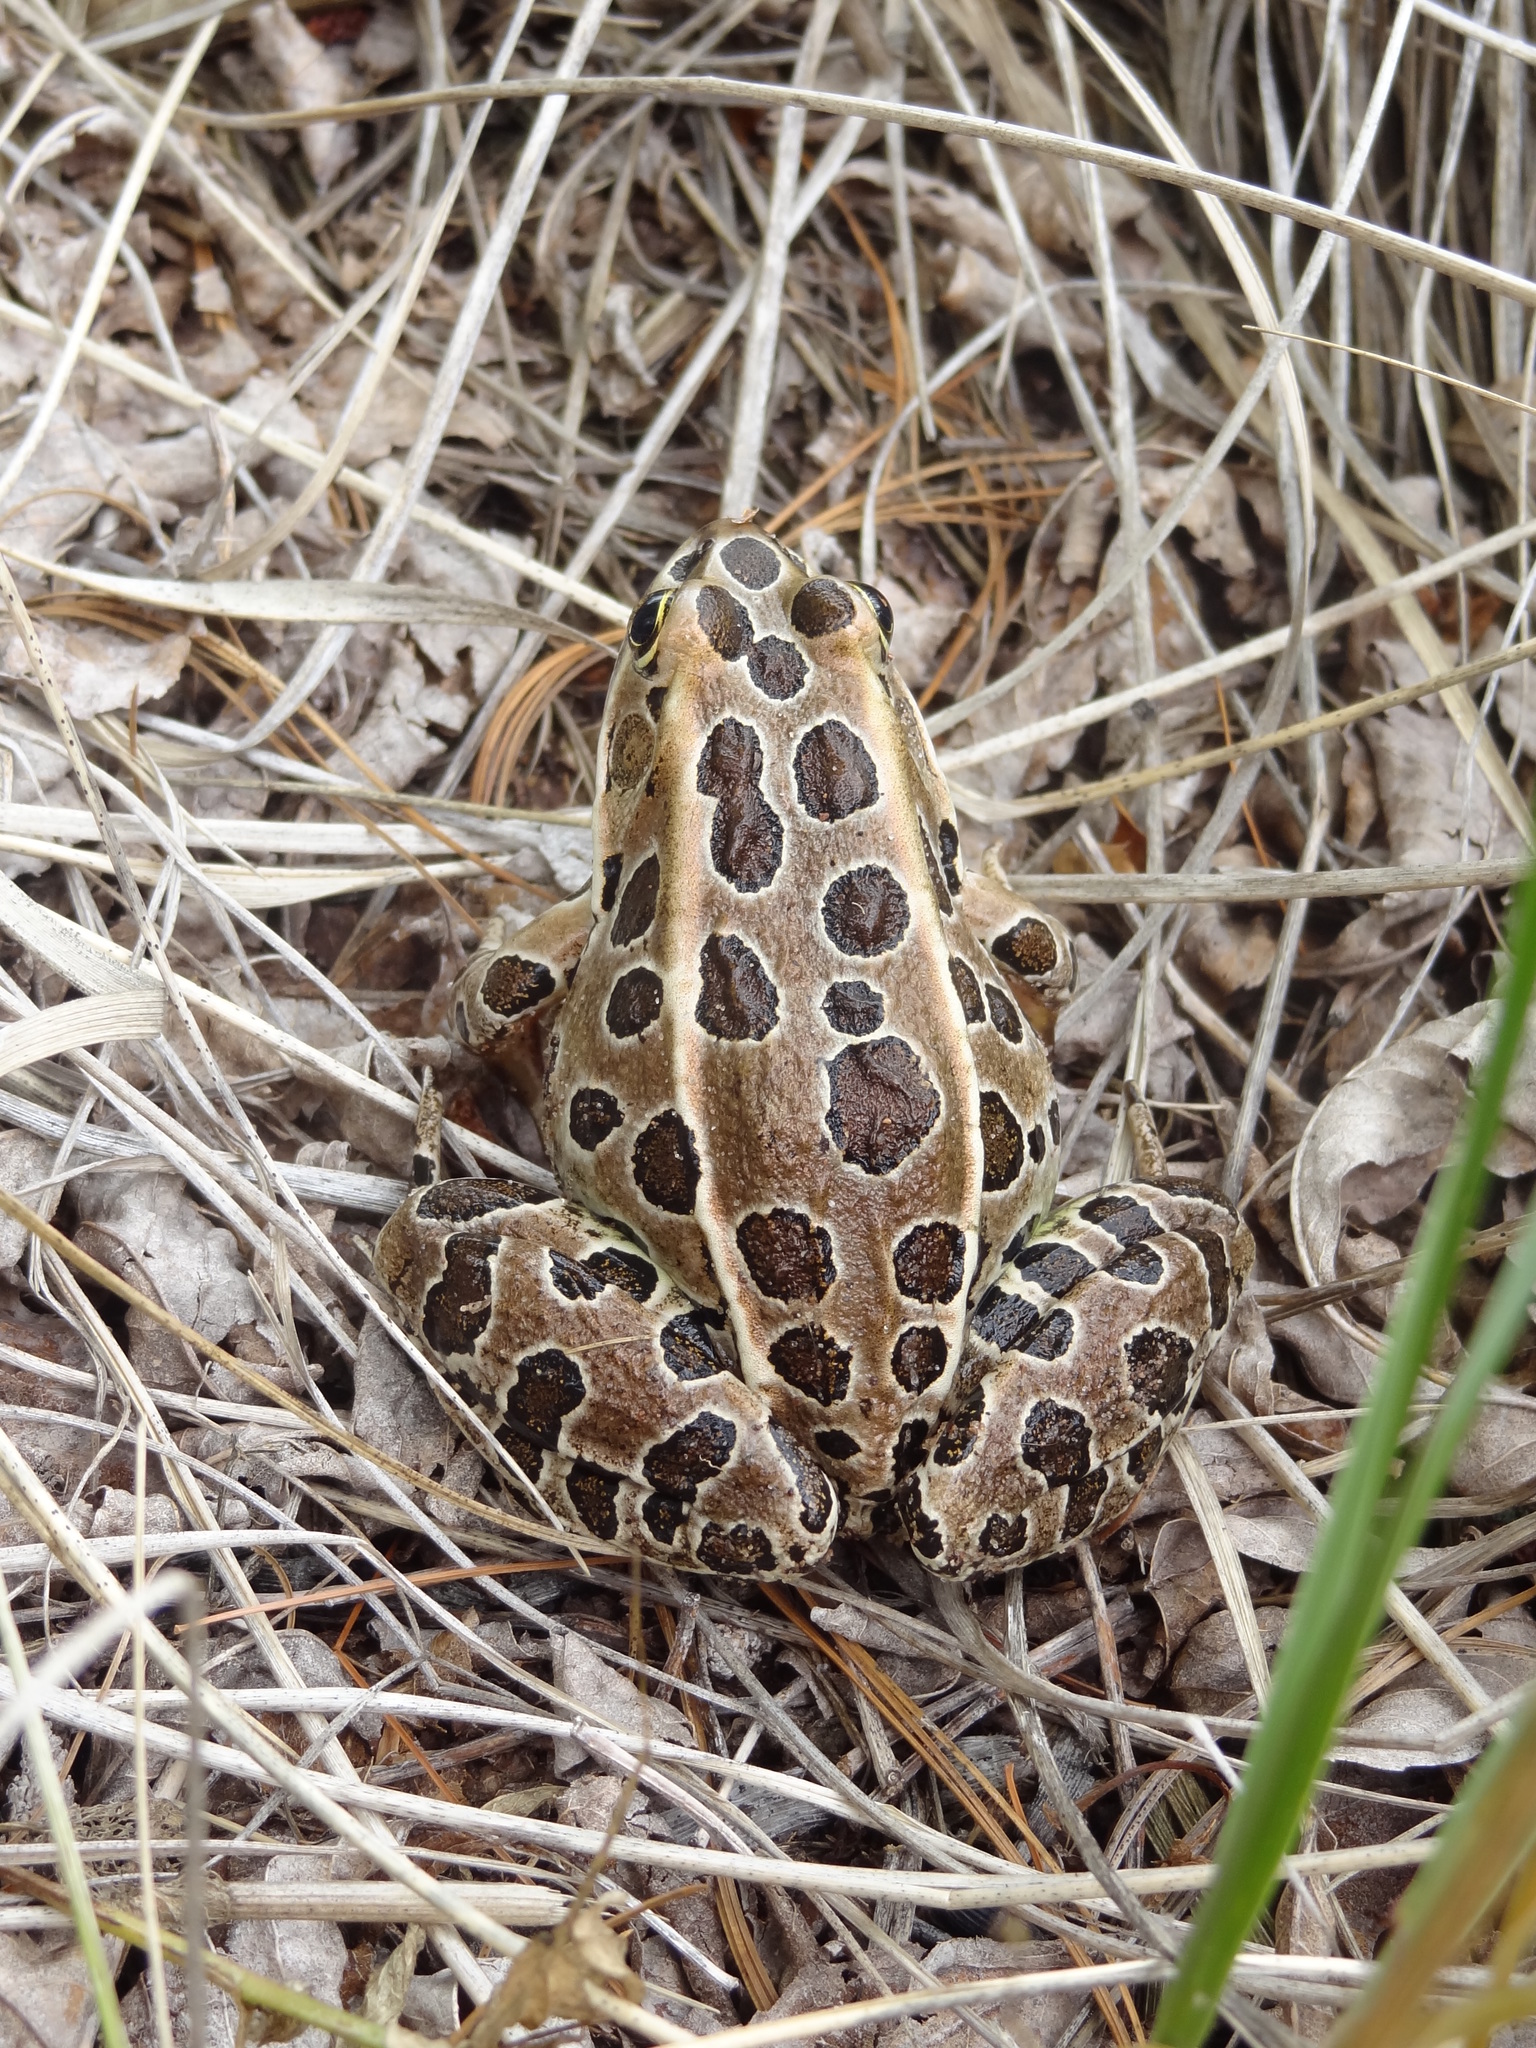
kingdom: Animalia
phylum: Chordata
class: Amphibia
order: Anura
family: Ranidae
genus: Lithobates
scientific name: Lithobates pipiens
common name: Northern leopard frog
